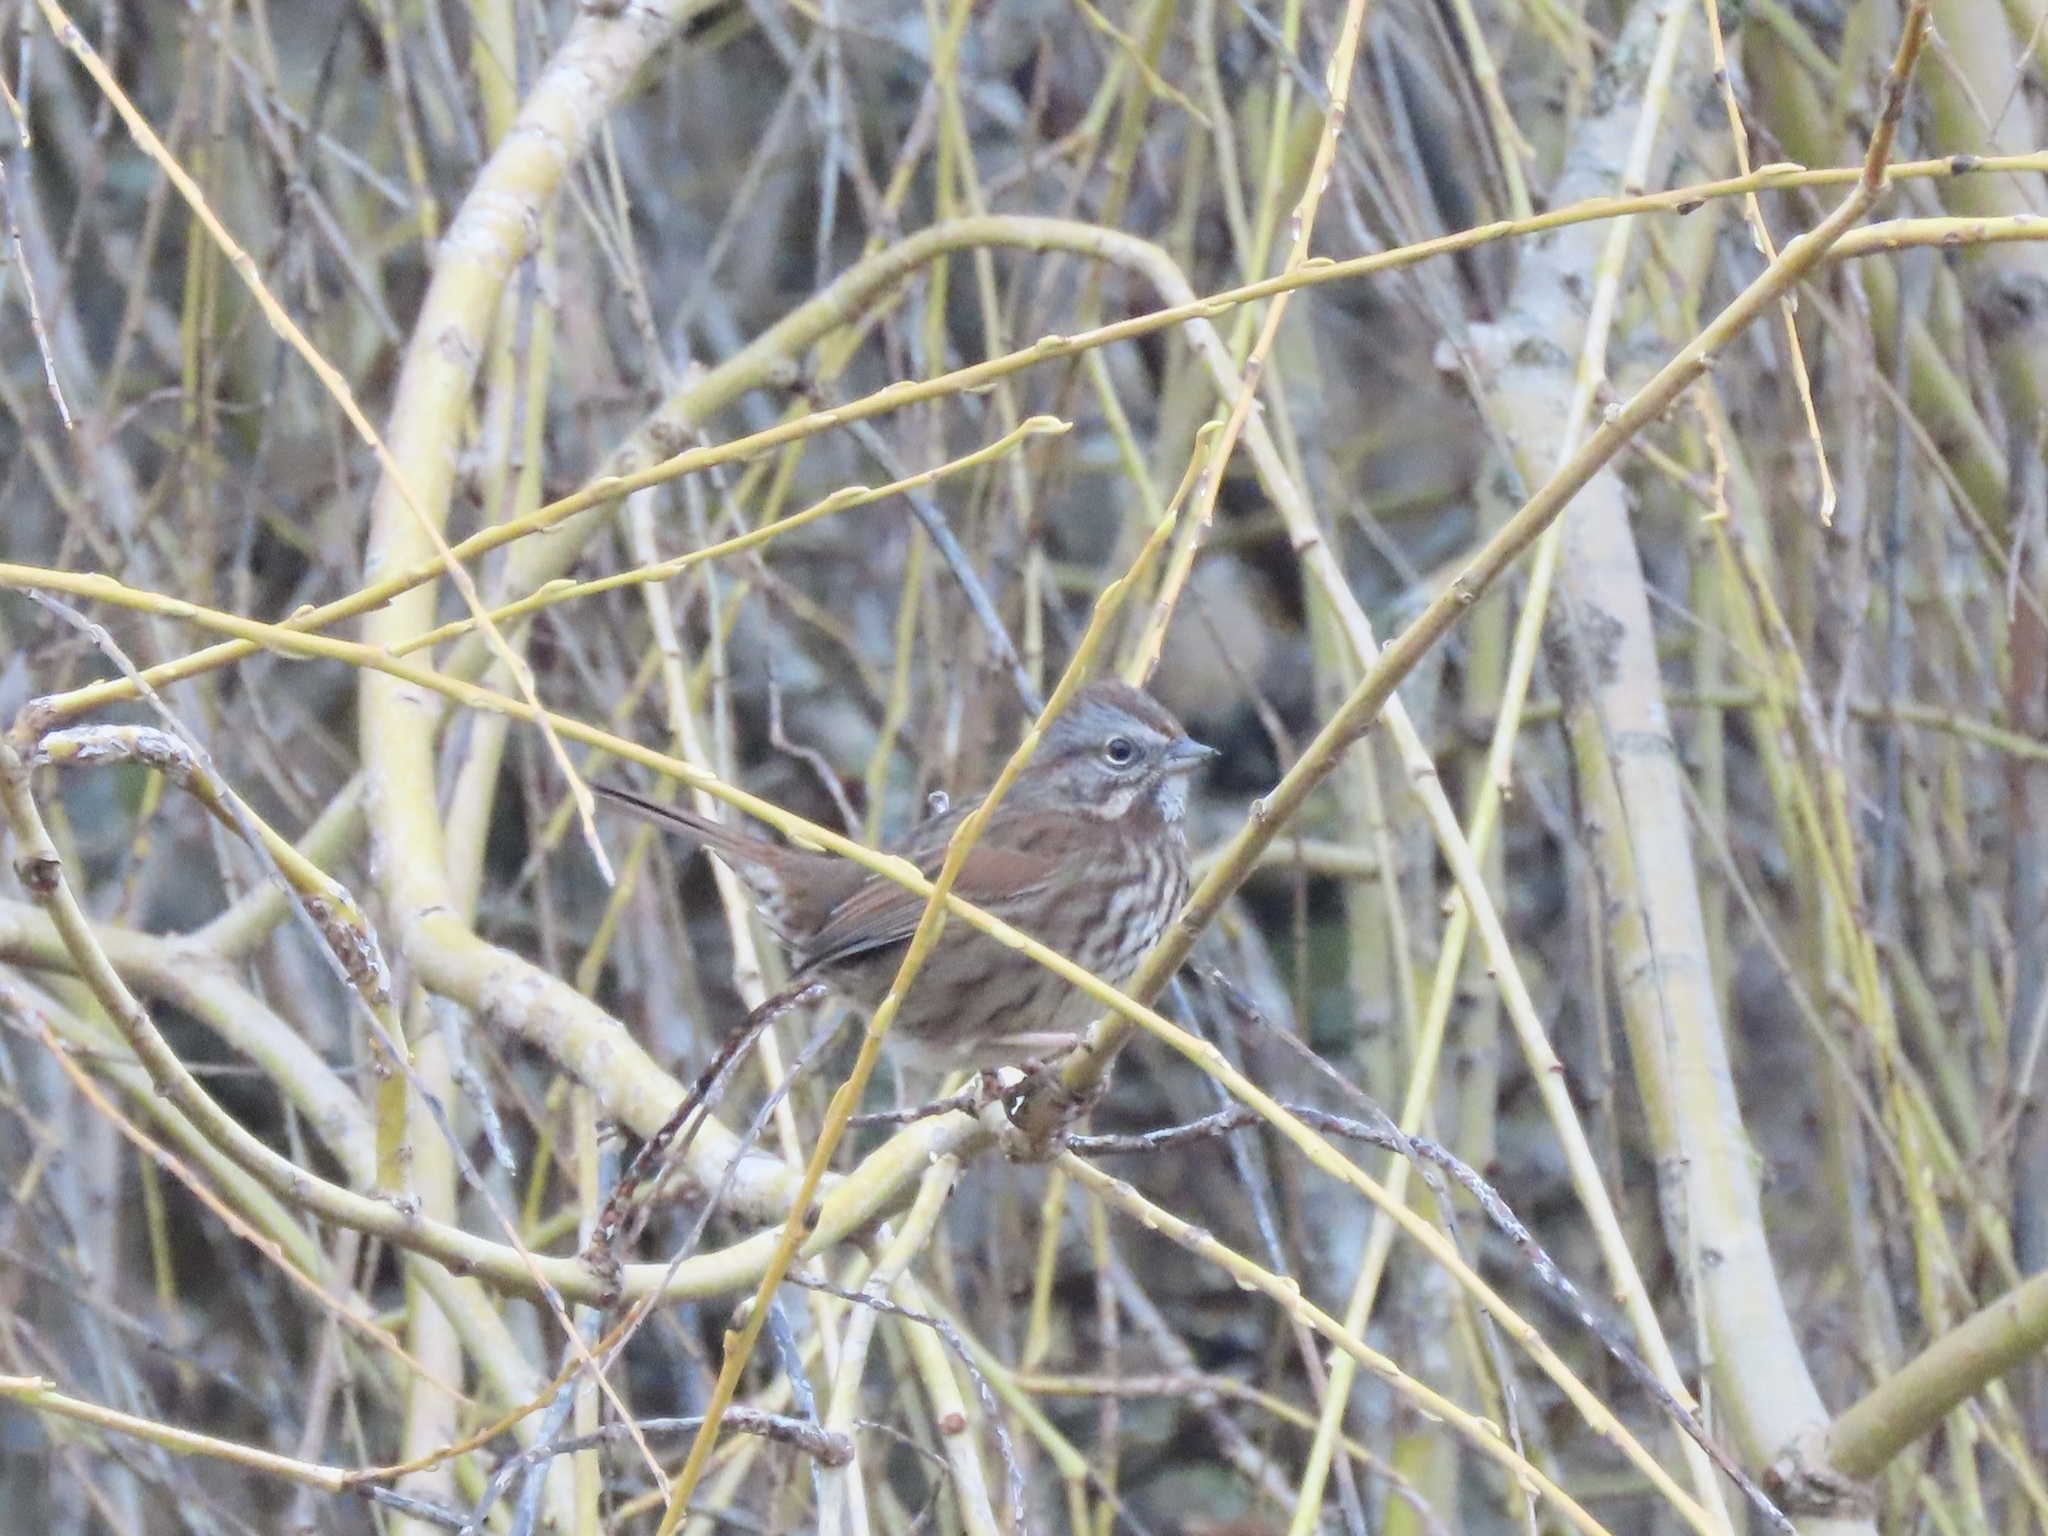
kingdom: Animalia
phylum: Chordata
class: Aves
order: Passeriformes
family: Passerellidae
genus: Melospiza
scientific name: Melospiza melodia
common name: Song sparrow
